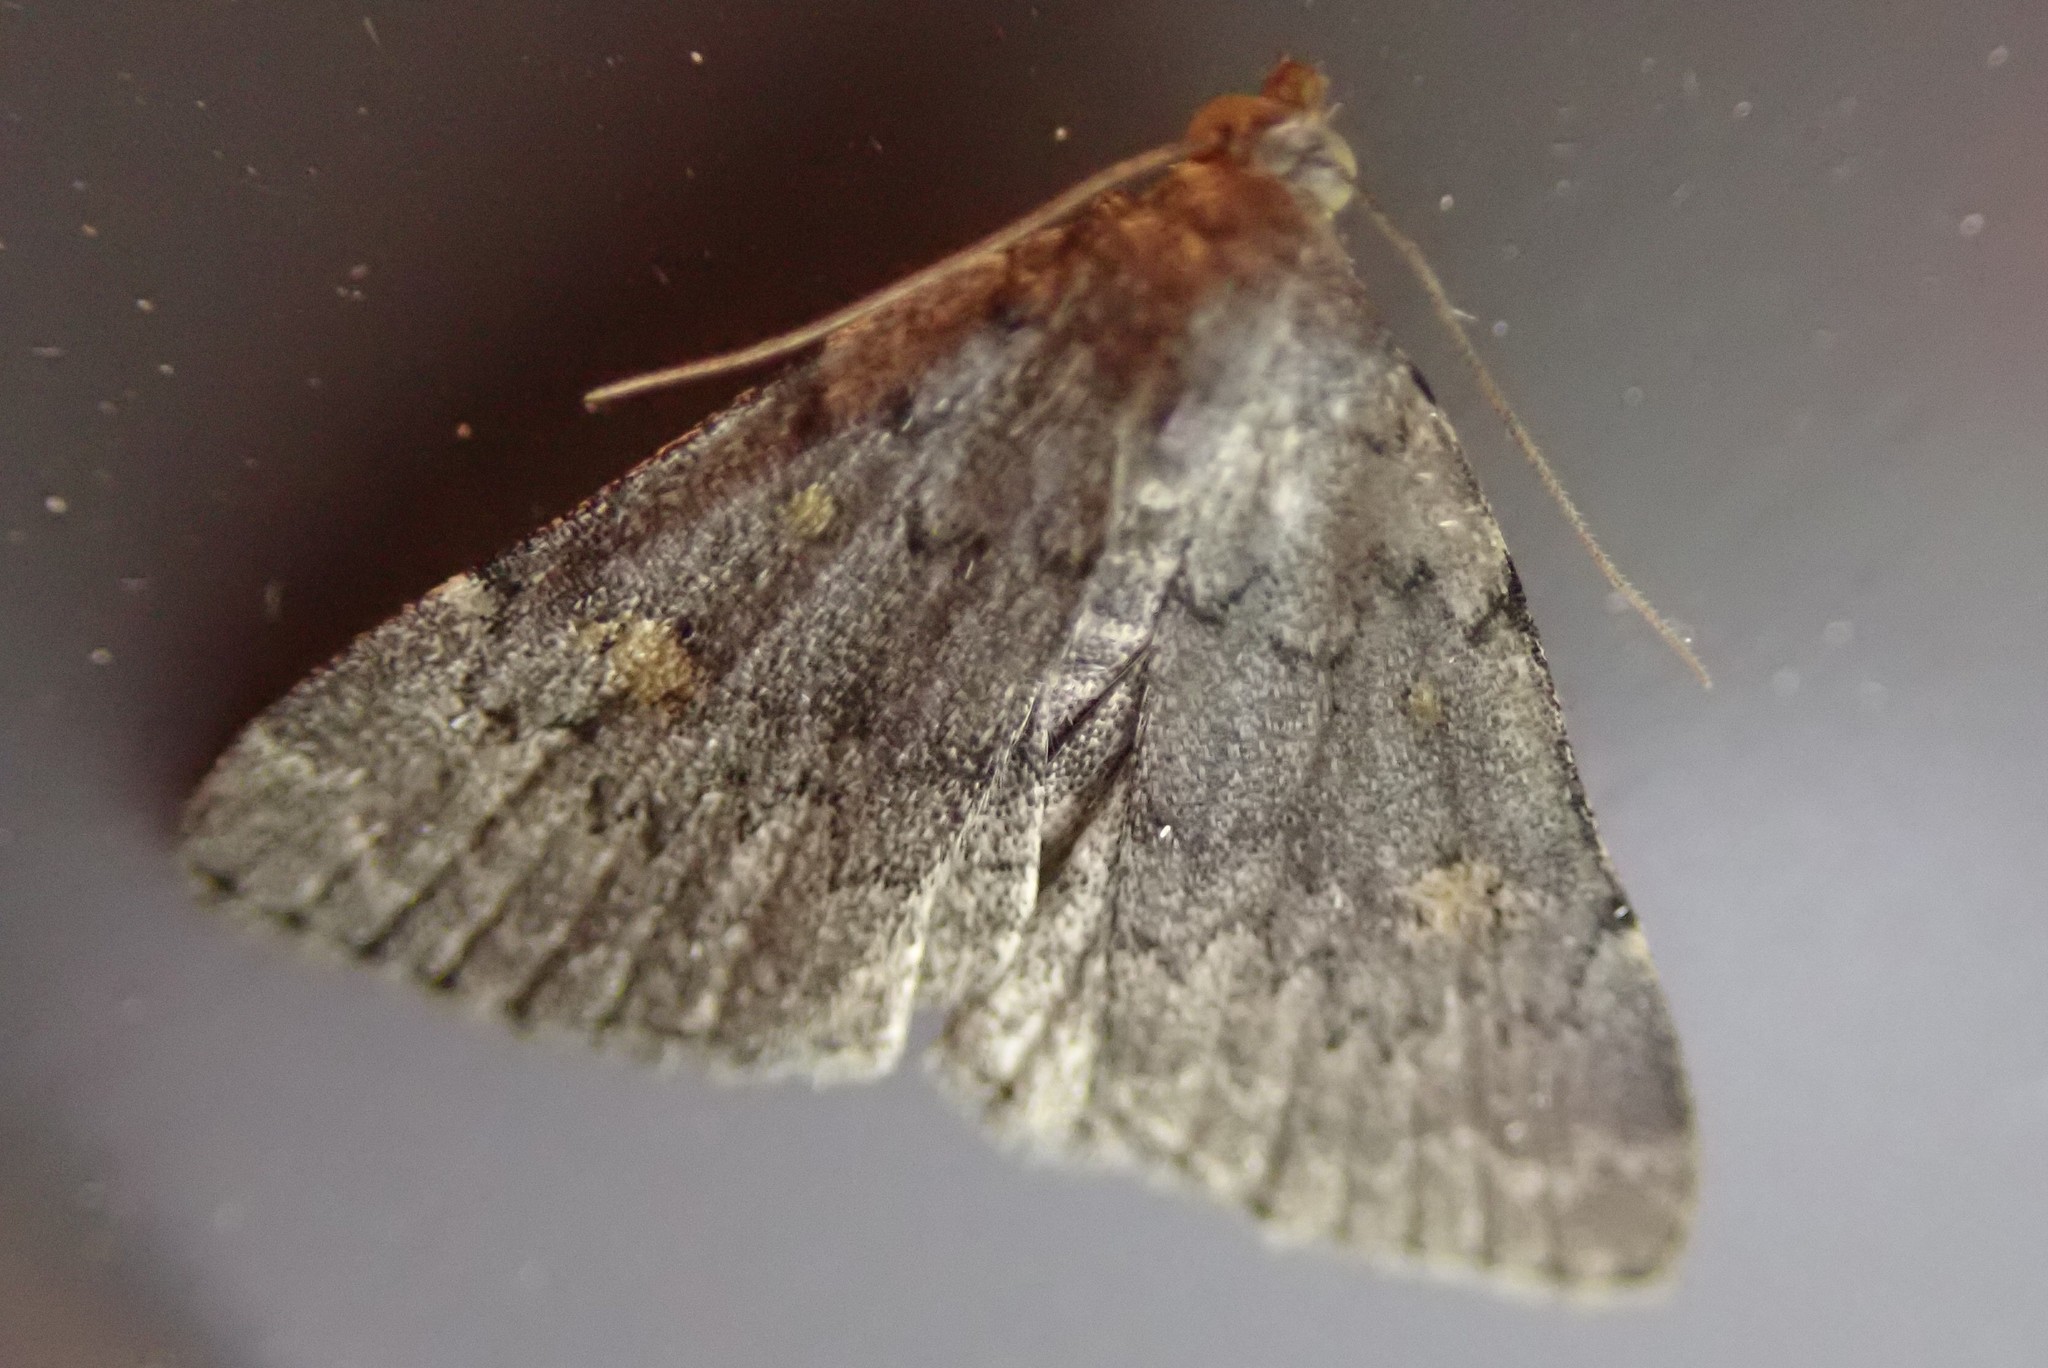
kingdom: Animalia
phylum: Arthropoda
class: Insecta
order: Lepidoptera
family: Erebidae
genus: Idia
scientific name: Idia aemula
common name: Common idia moth
